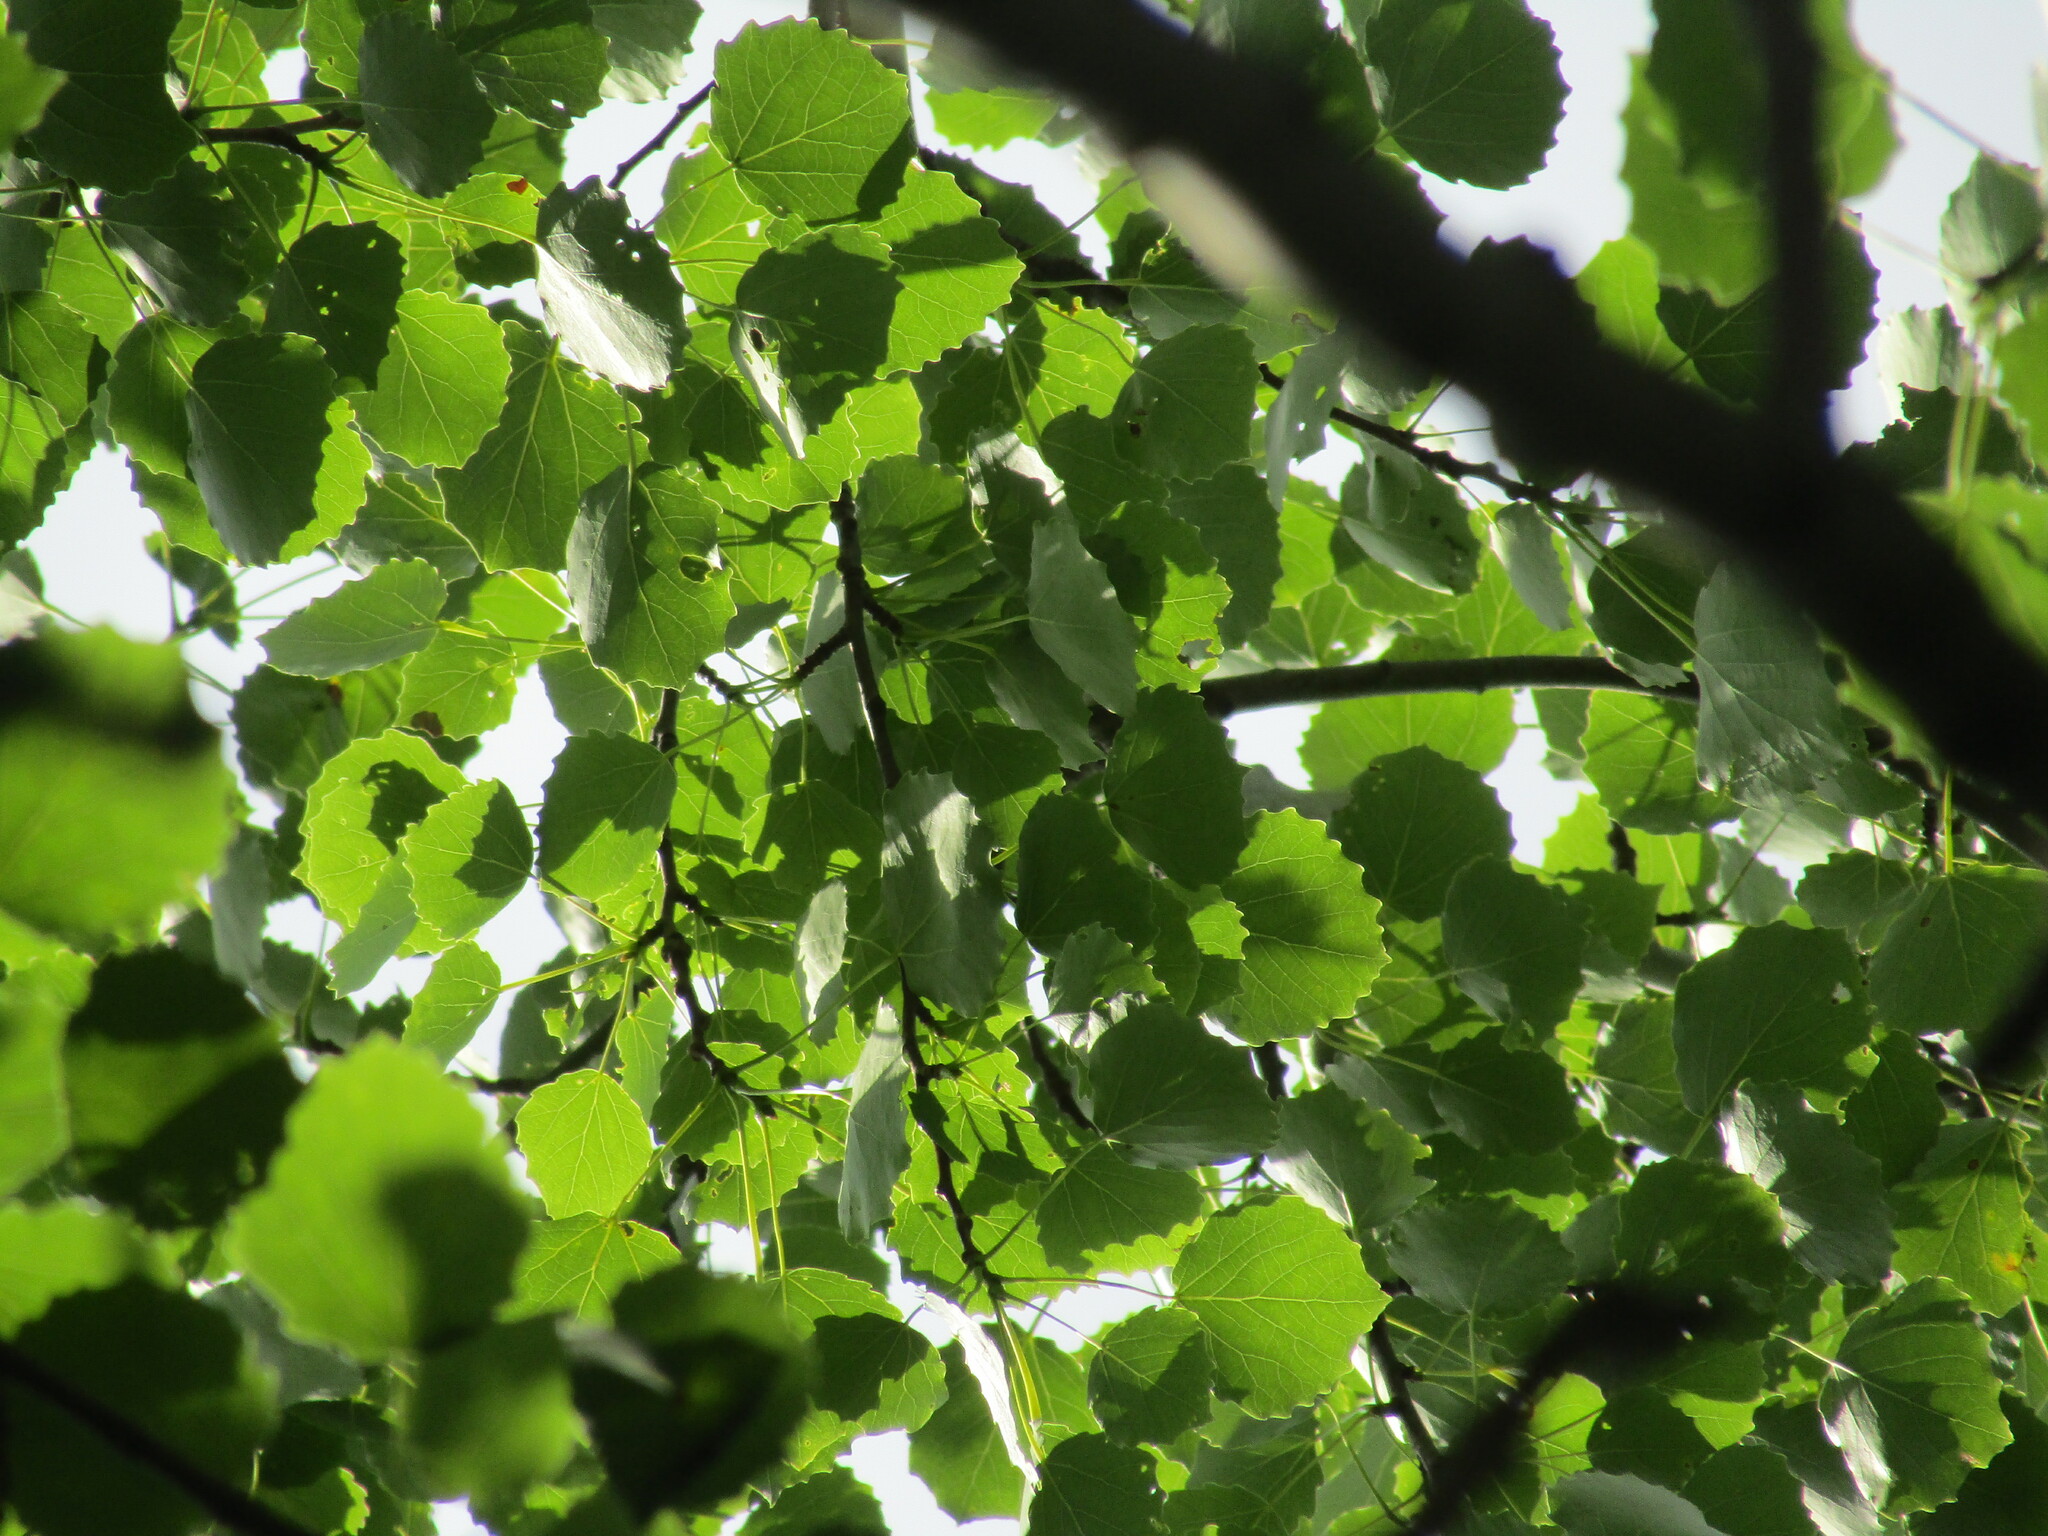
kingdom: Plantae
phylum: Tracheophyta
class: Magnoliopsida
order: Malpighiales
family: Salicaceae
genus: Populus
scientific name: Populus tremula
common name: European aspen
